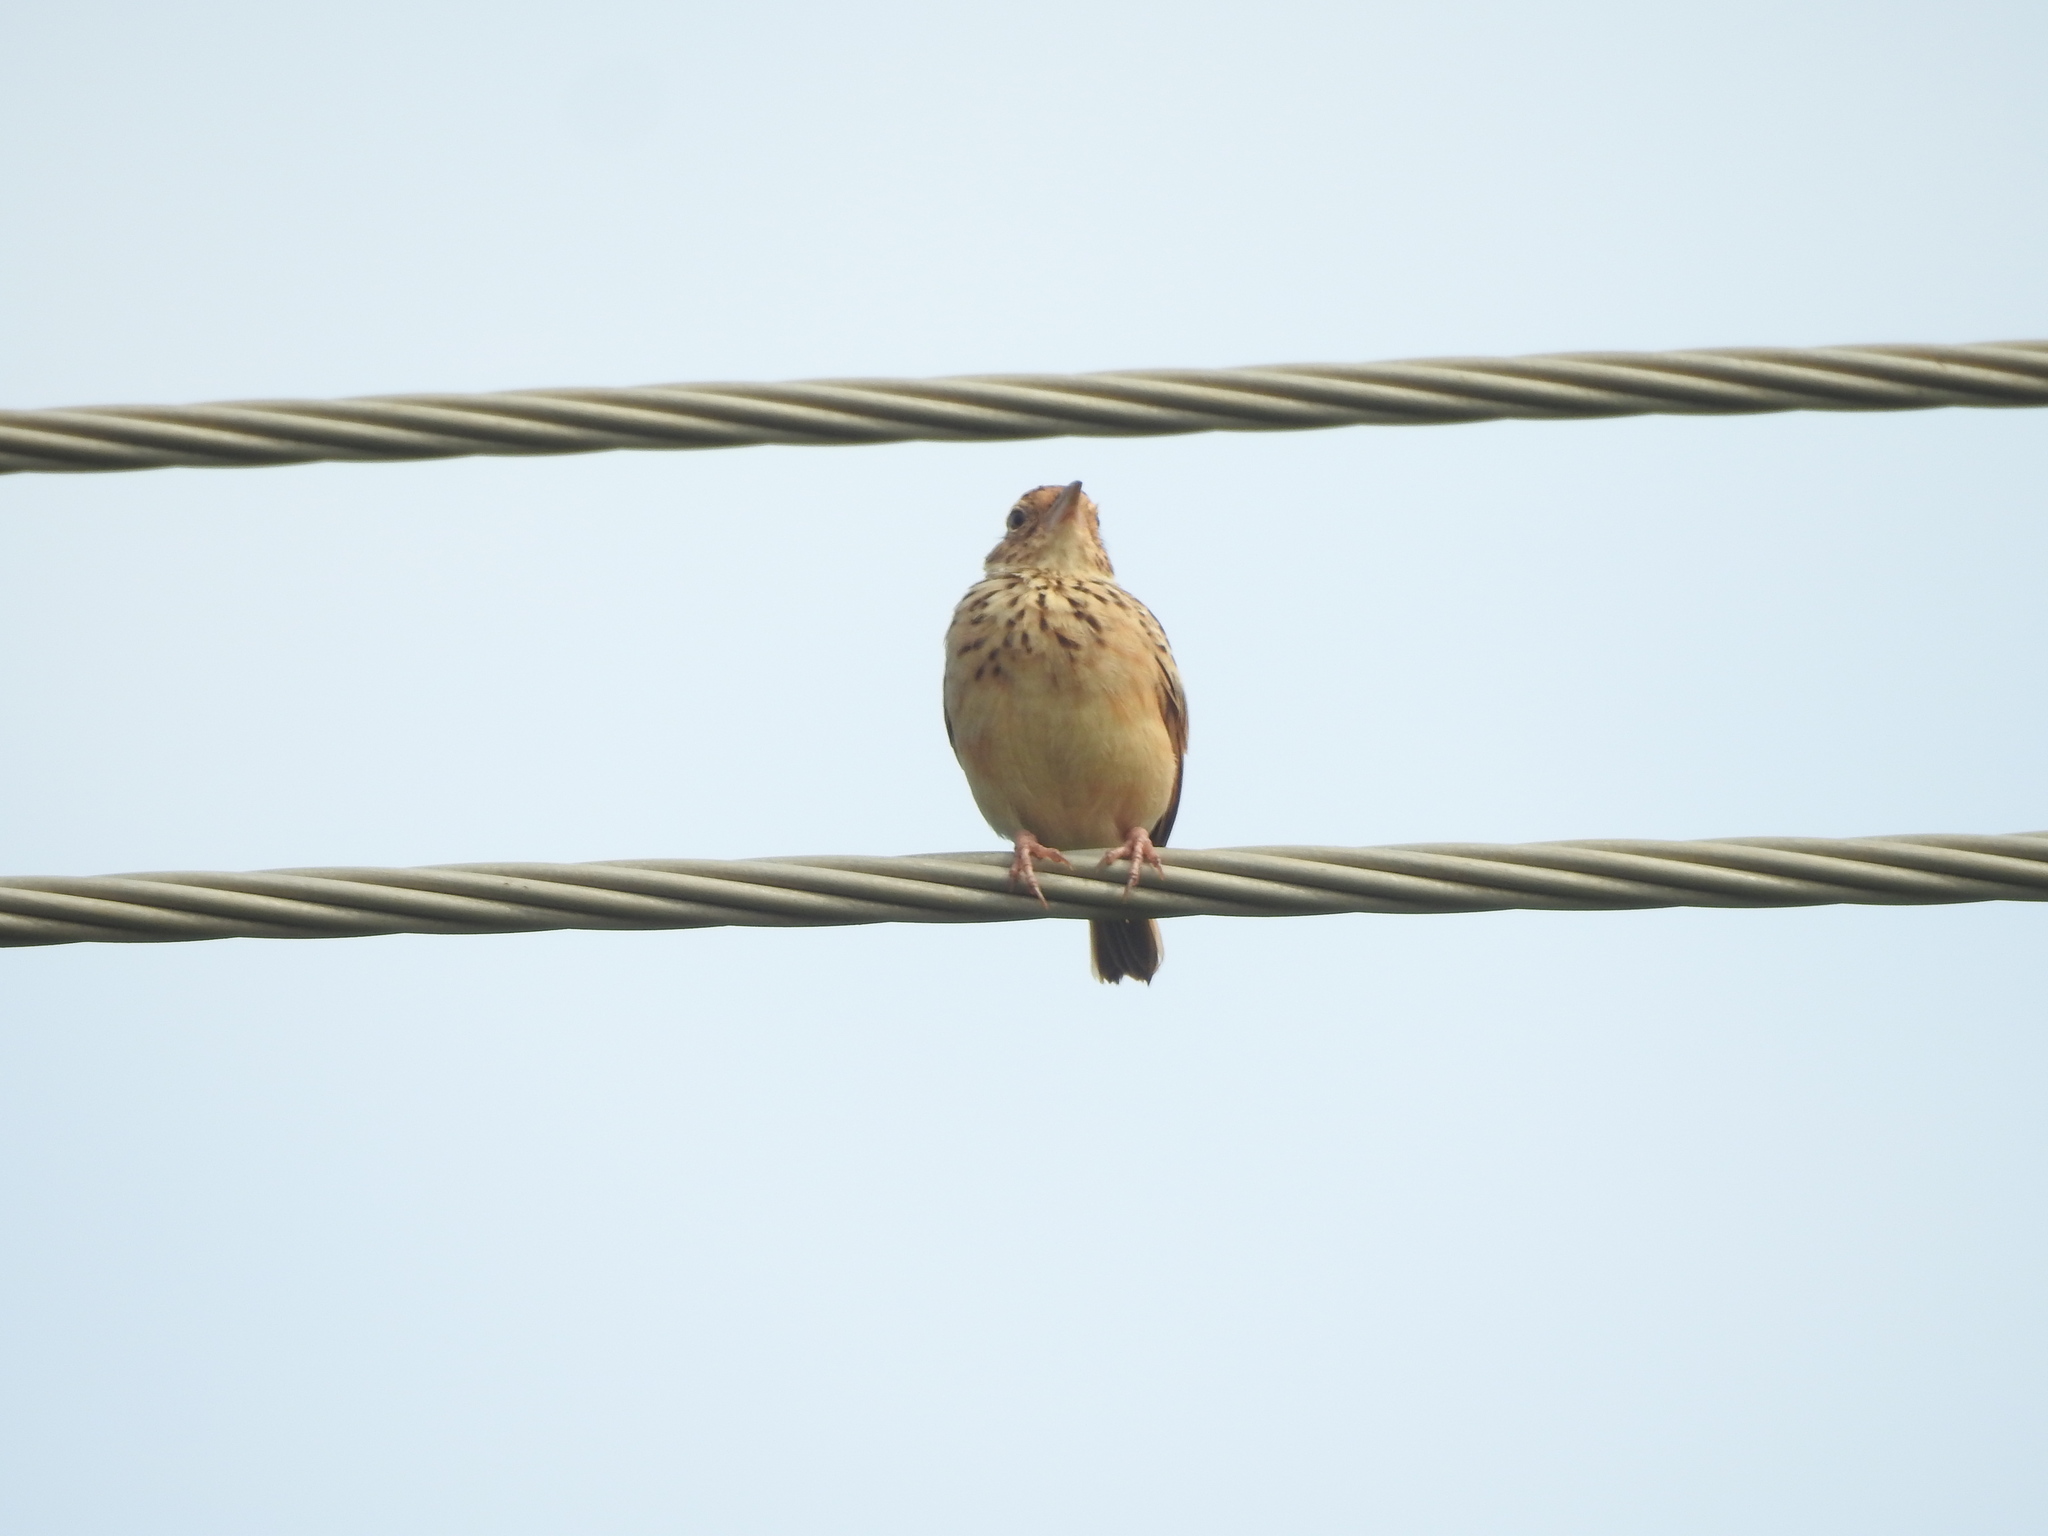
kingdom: Animalia
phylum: Chordata
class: Aves
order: Passeriformes
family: Alaudidae
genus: Mirafra
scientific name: Mirafra affinis
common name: Jerdon's bushlark
